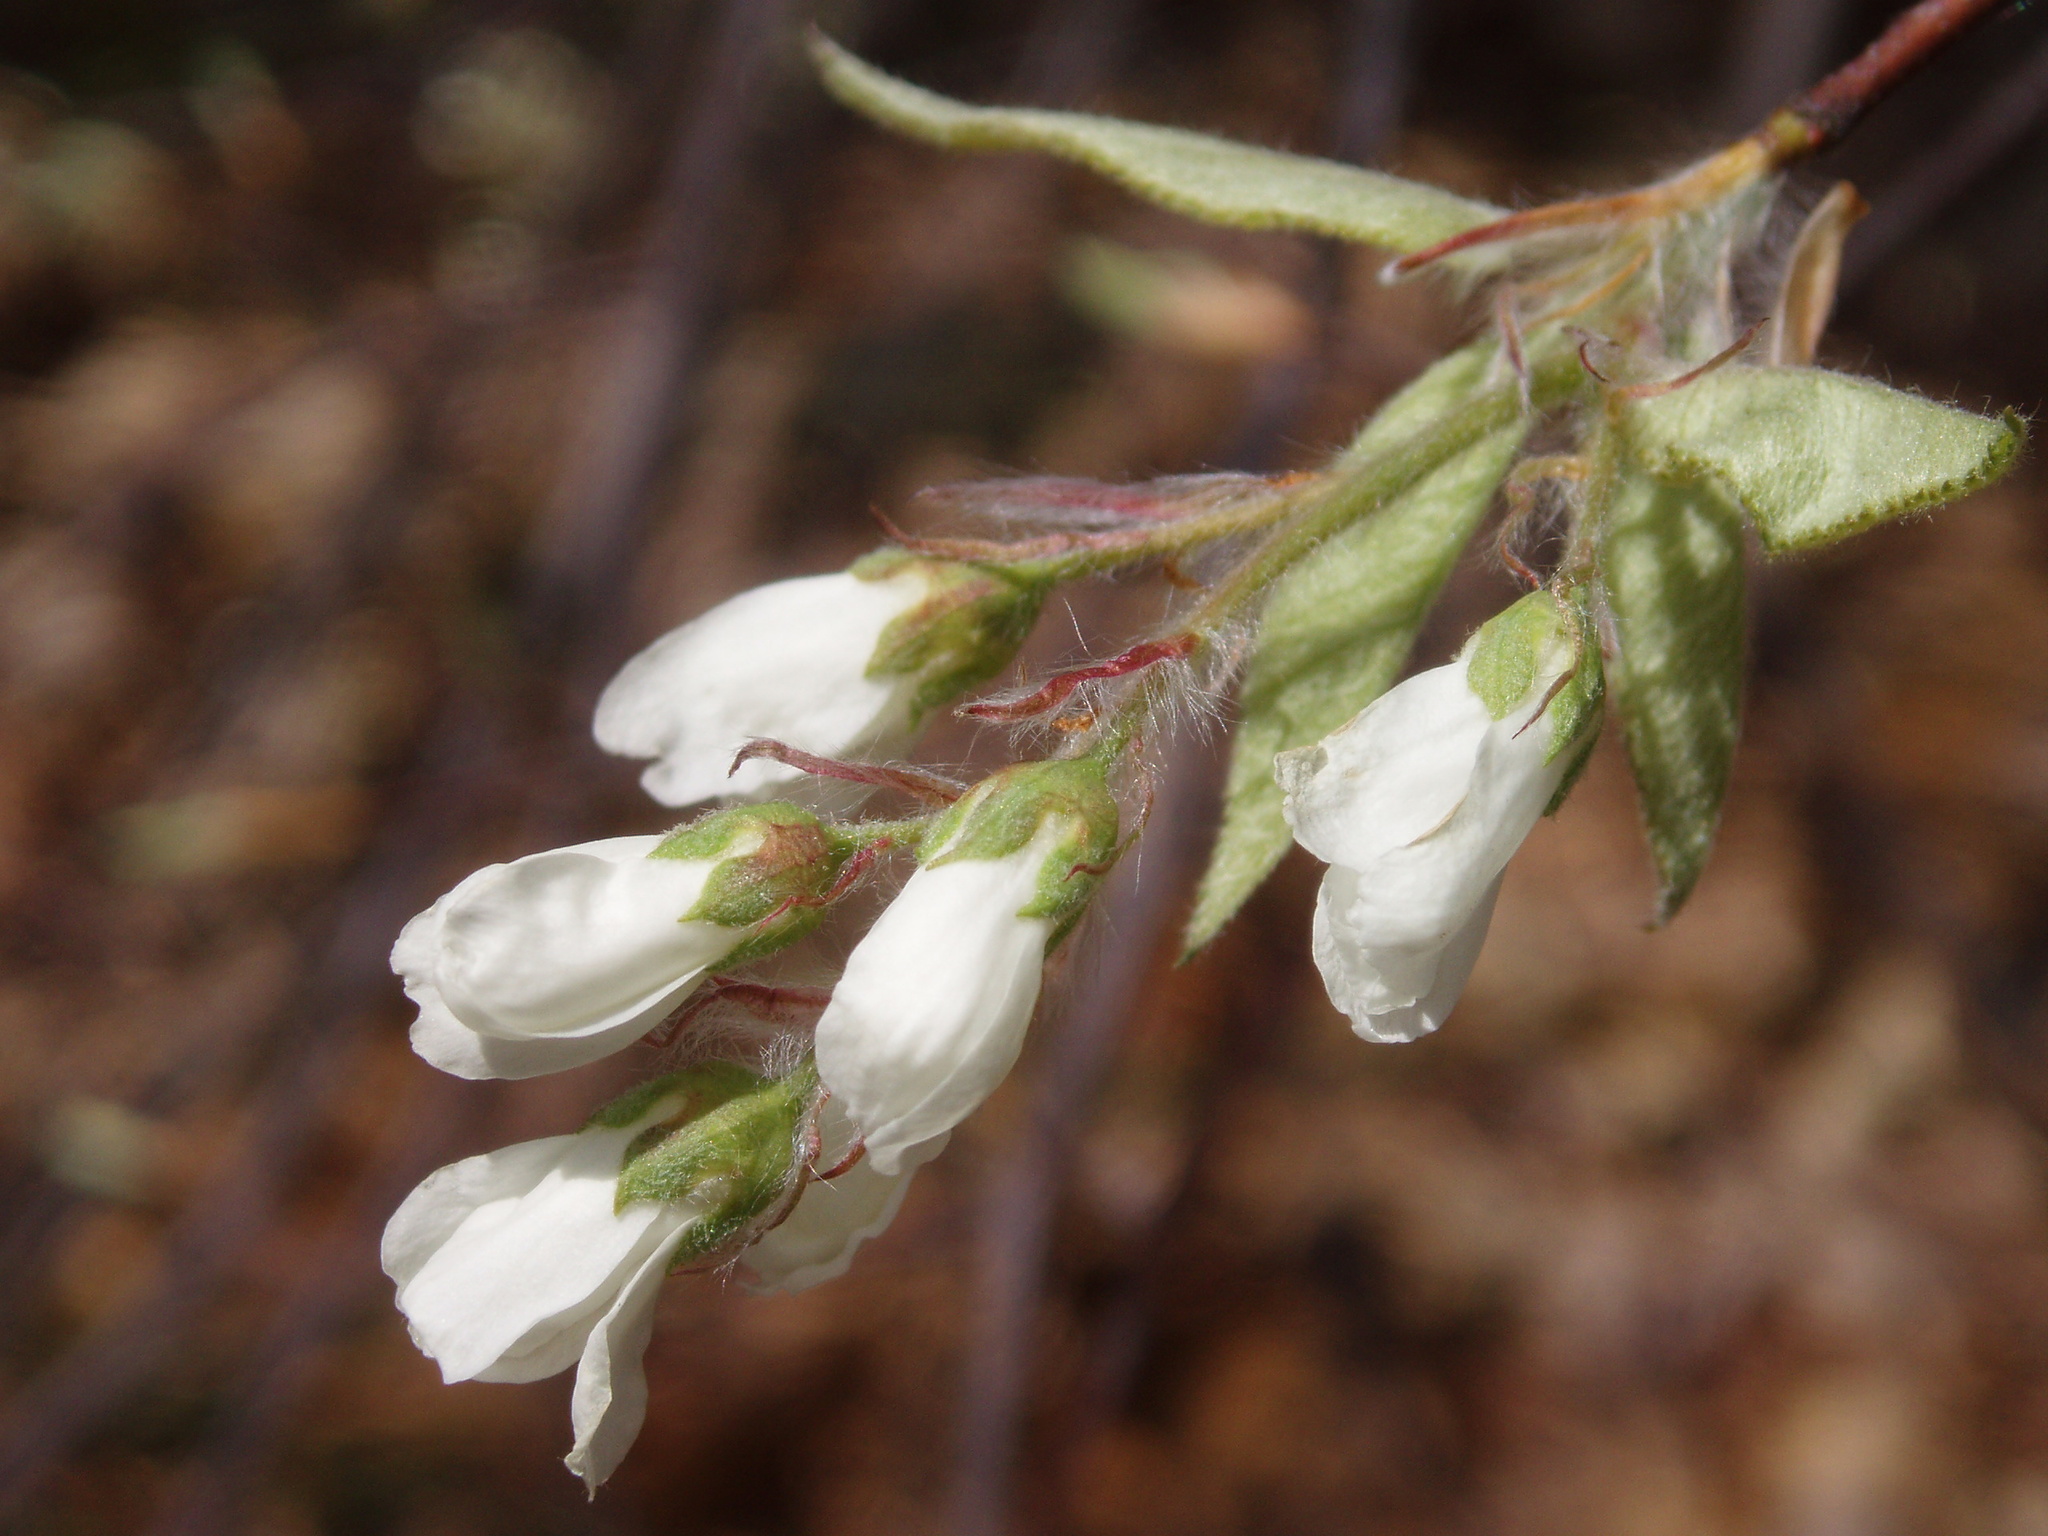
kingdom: Plantae
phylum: Tracheophyta
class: Magnoliopsida
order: Rosales
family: Rosaceae
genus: Amelanchier
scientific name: Amelanchier arborea
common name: Downy serviceberry
